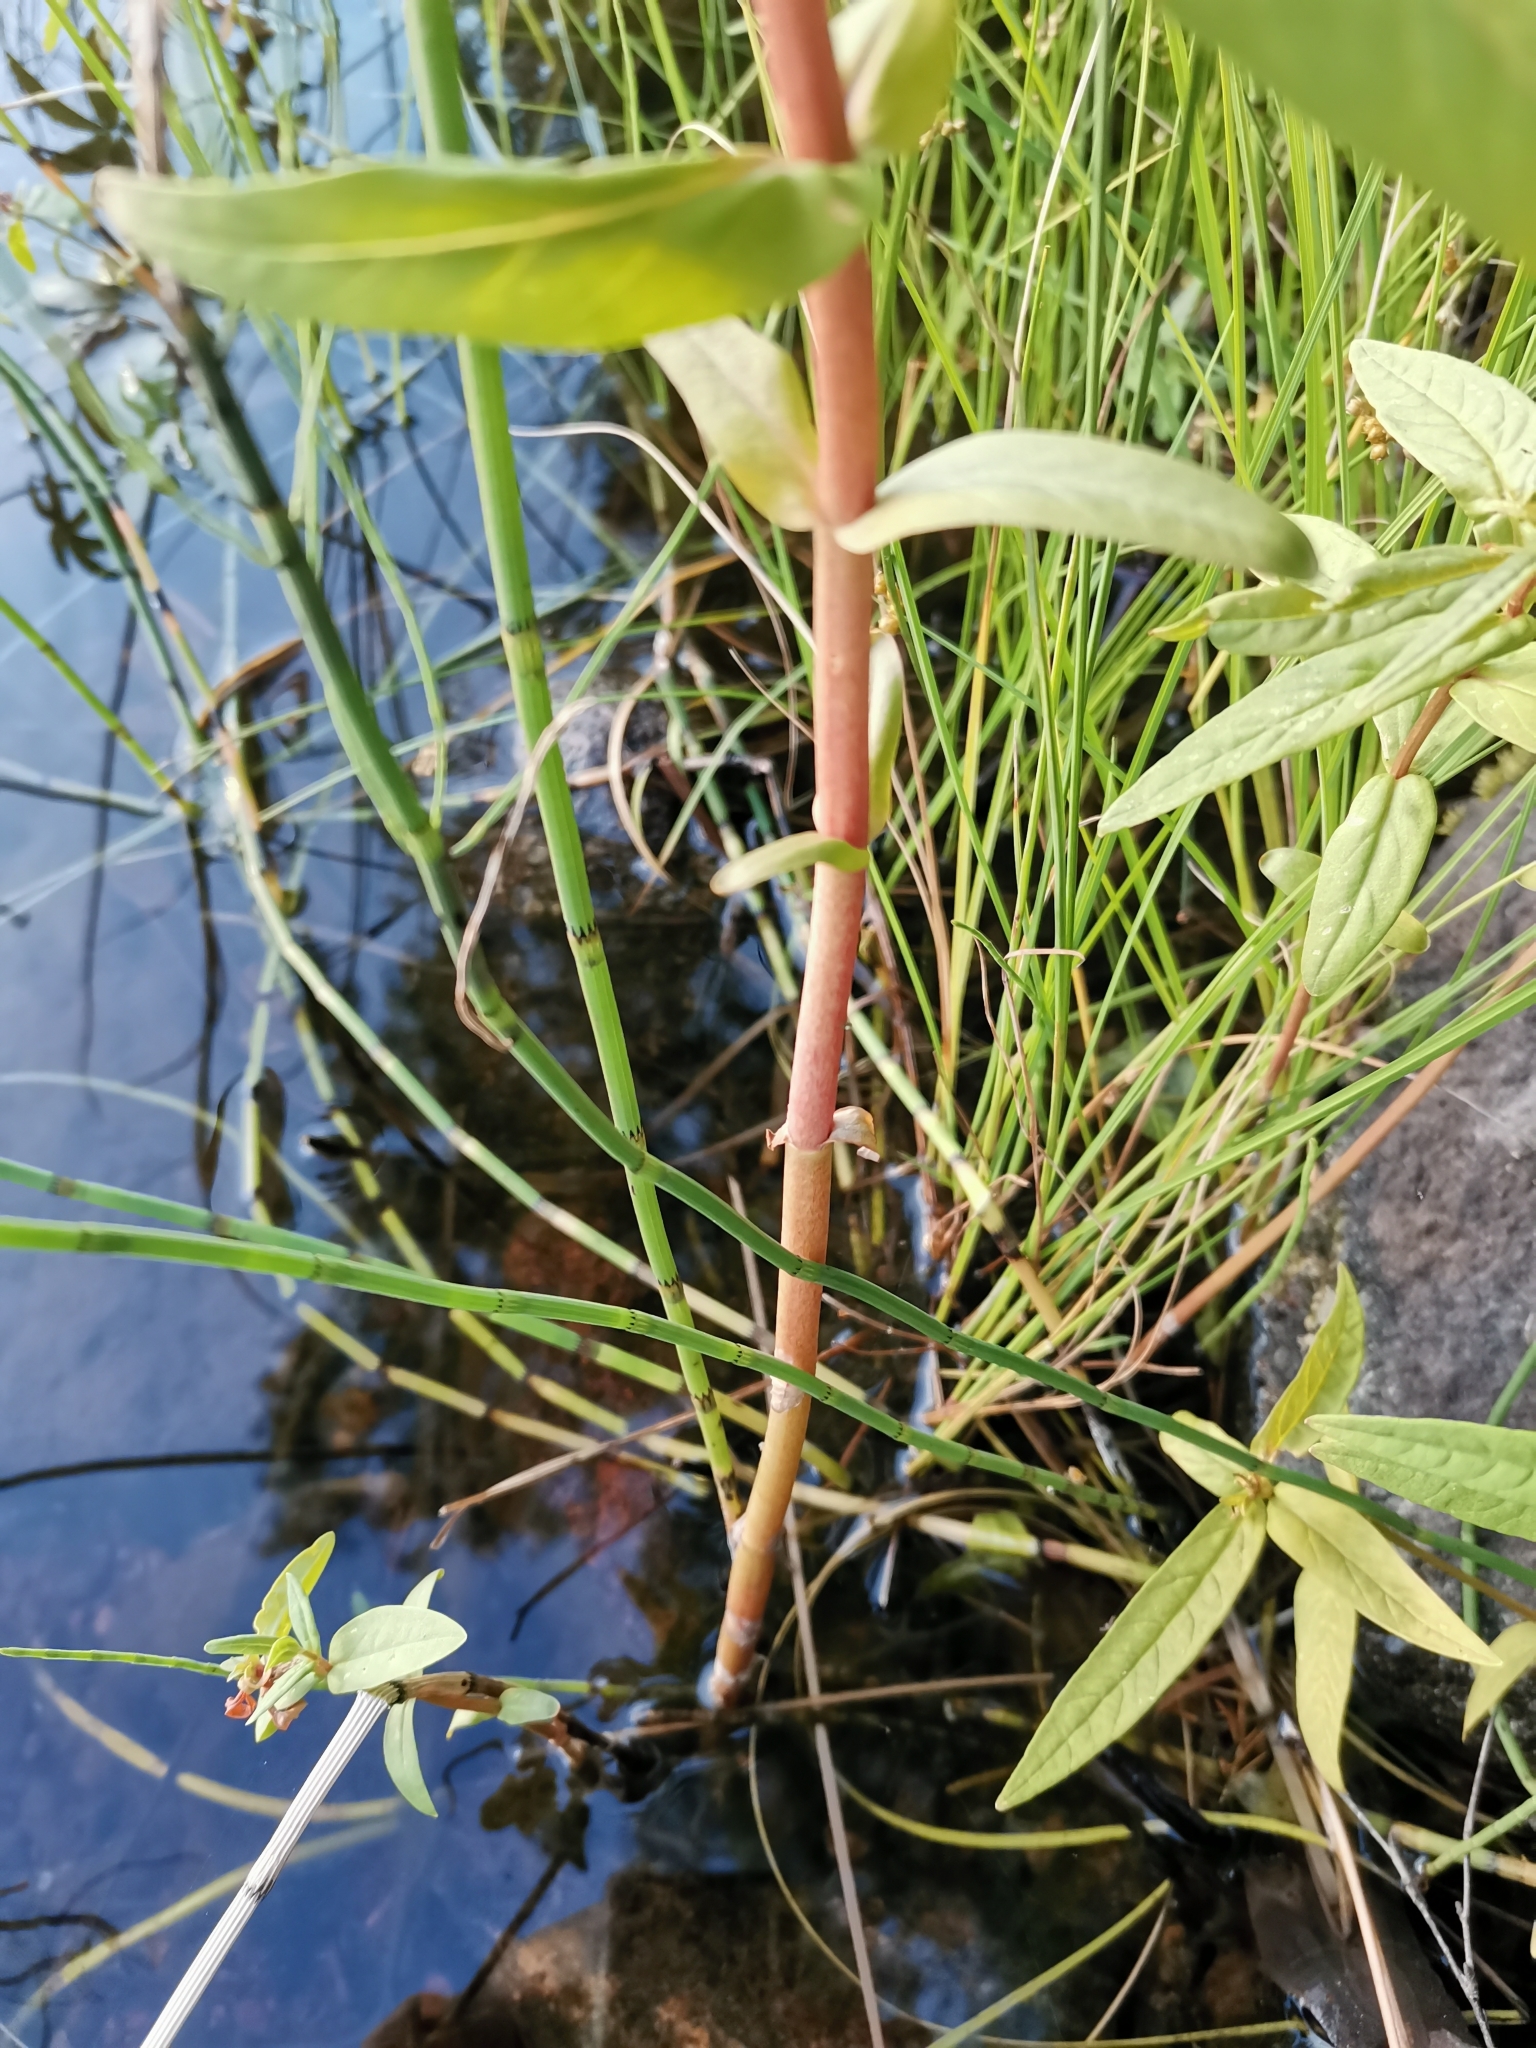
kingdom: Plantae
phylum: Tracheophyta
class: Magnoliopsida
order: Ericales
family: Primulaceae
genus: Lysimachia
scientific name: Lysimachia thyrsiflora
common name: Tufted loosestrife
